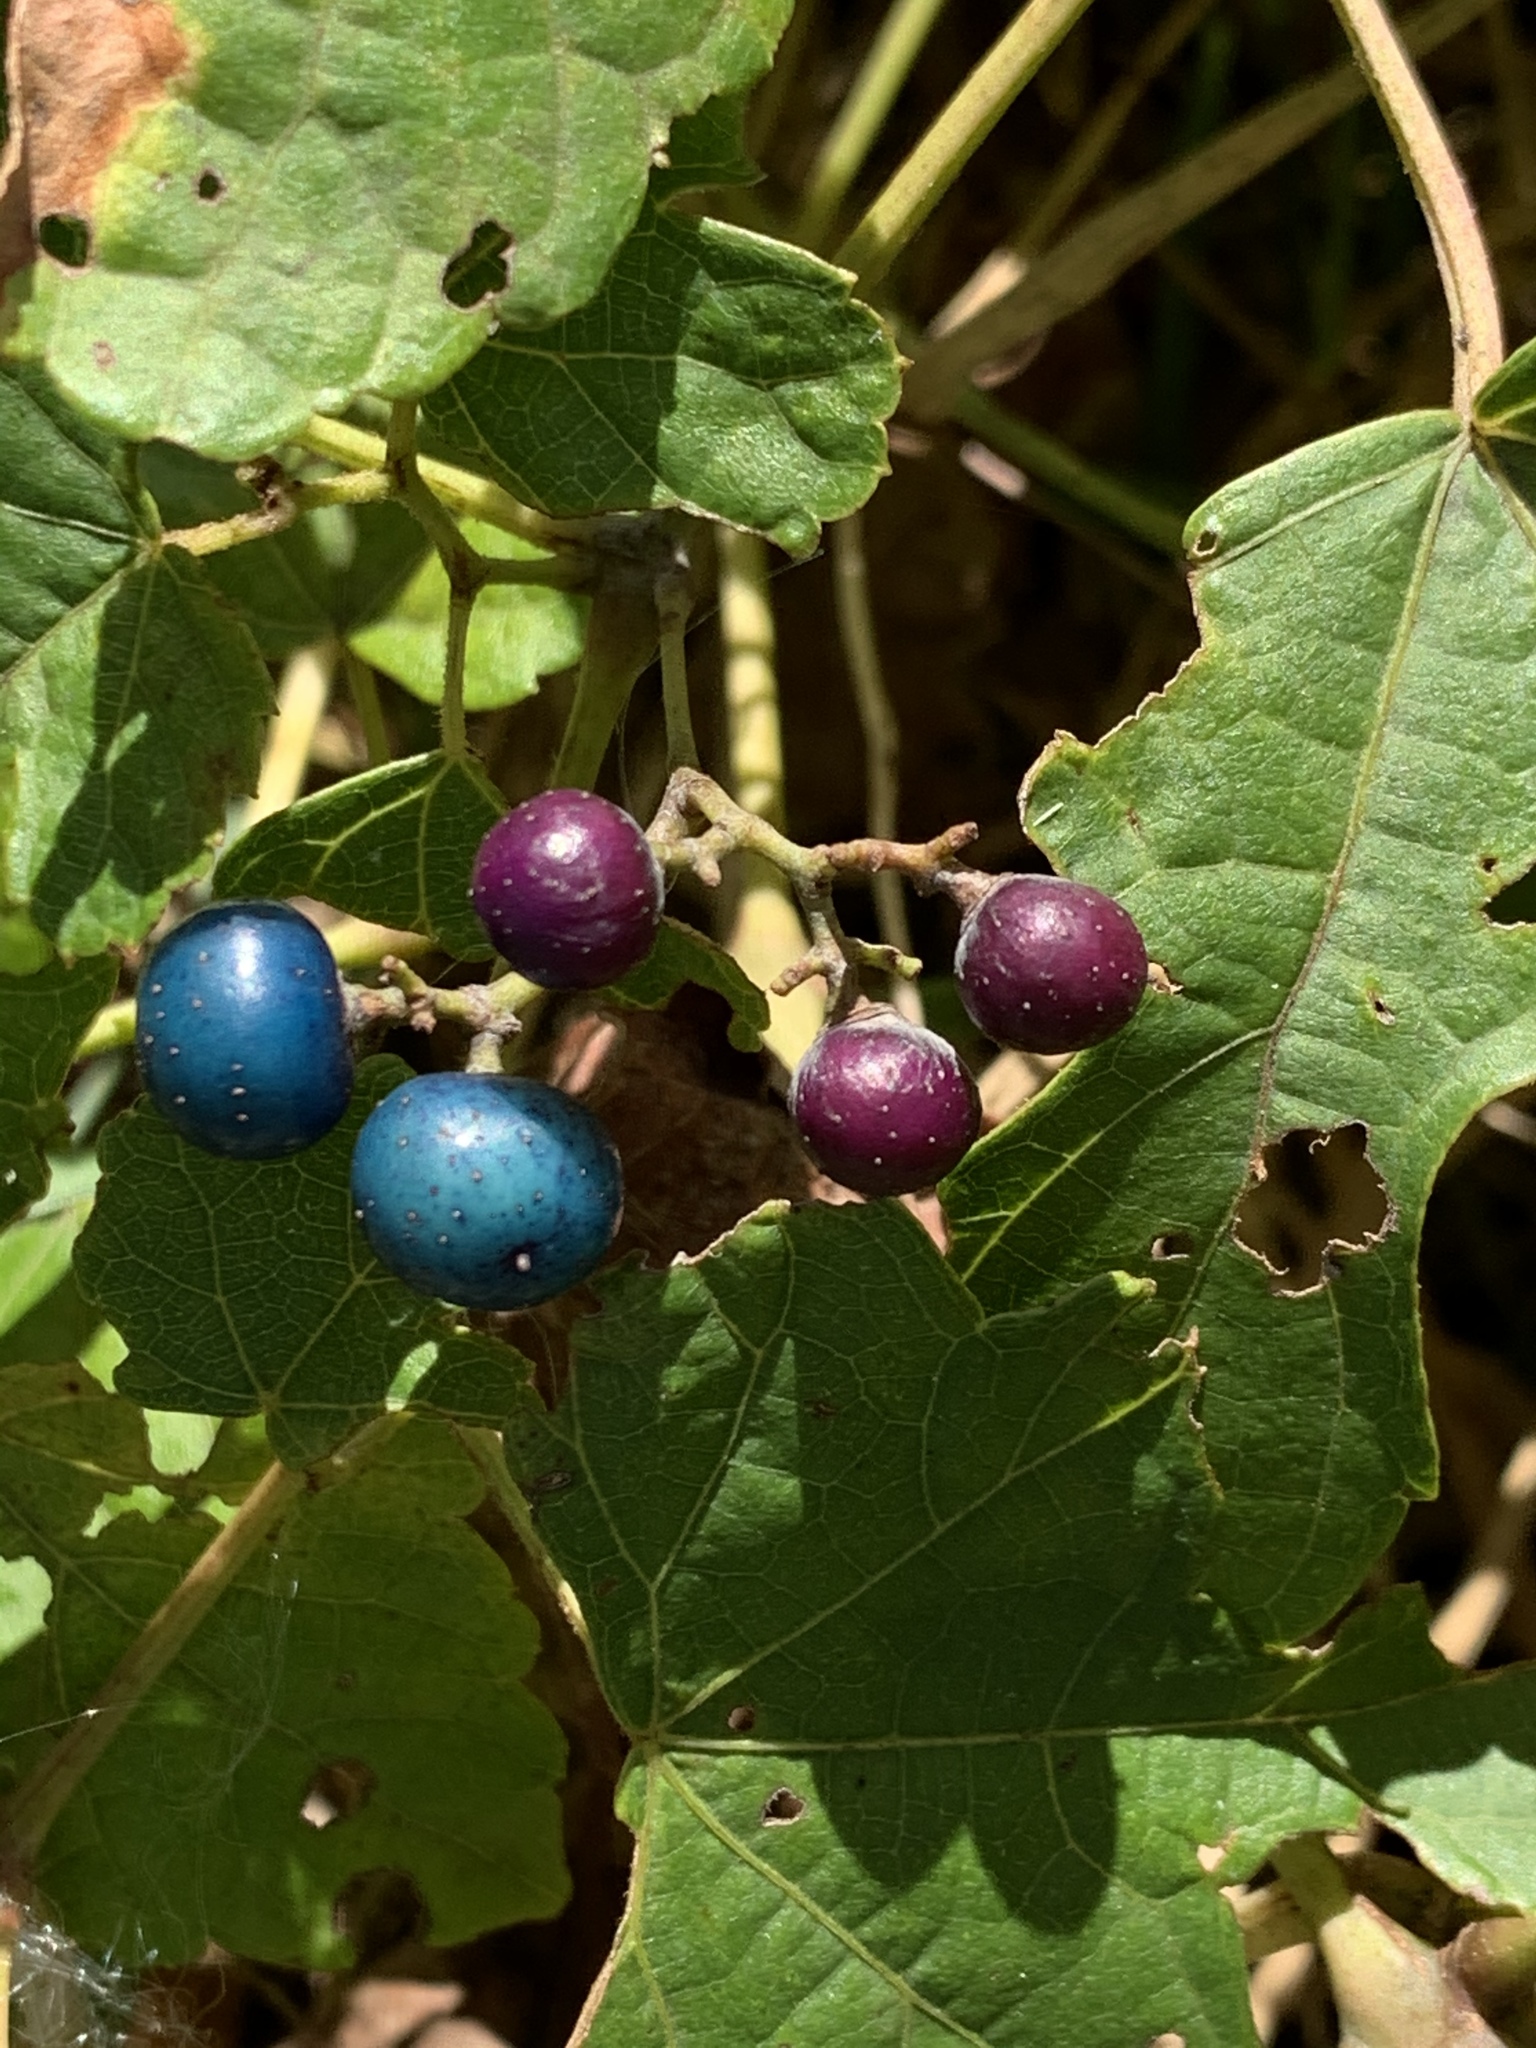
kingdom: Plantae
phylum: Tracheophyta
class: Magnoliopsida
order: Vitales
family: Vitaceae
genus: Ampelopsis
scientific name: Ampelopsis glandulosa
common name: Amur peppervine
